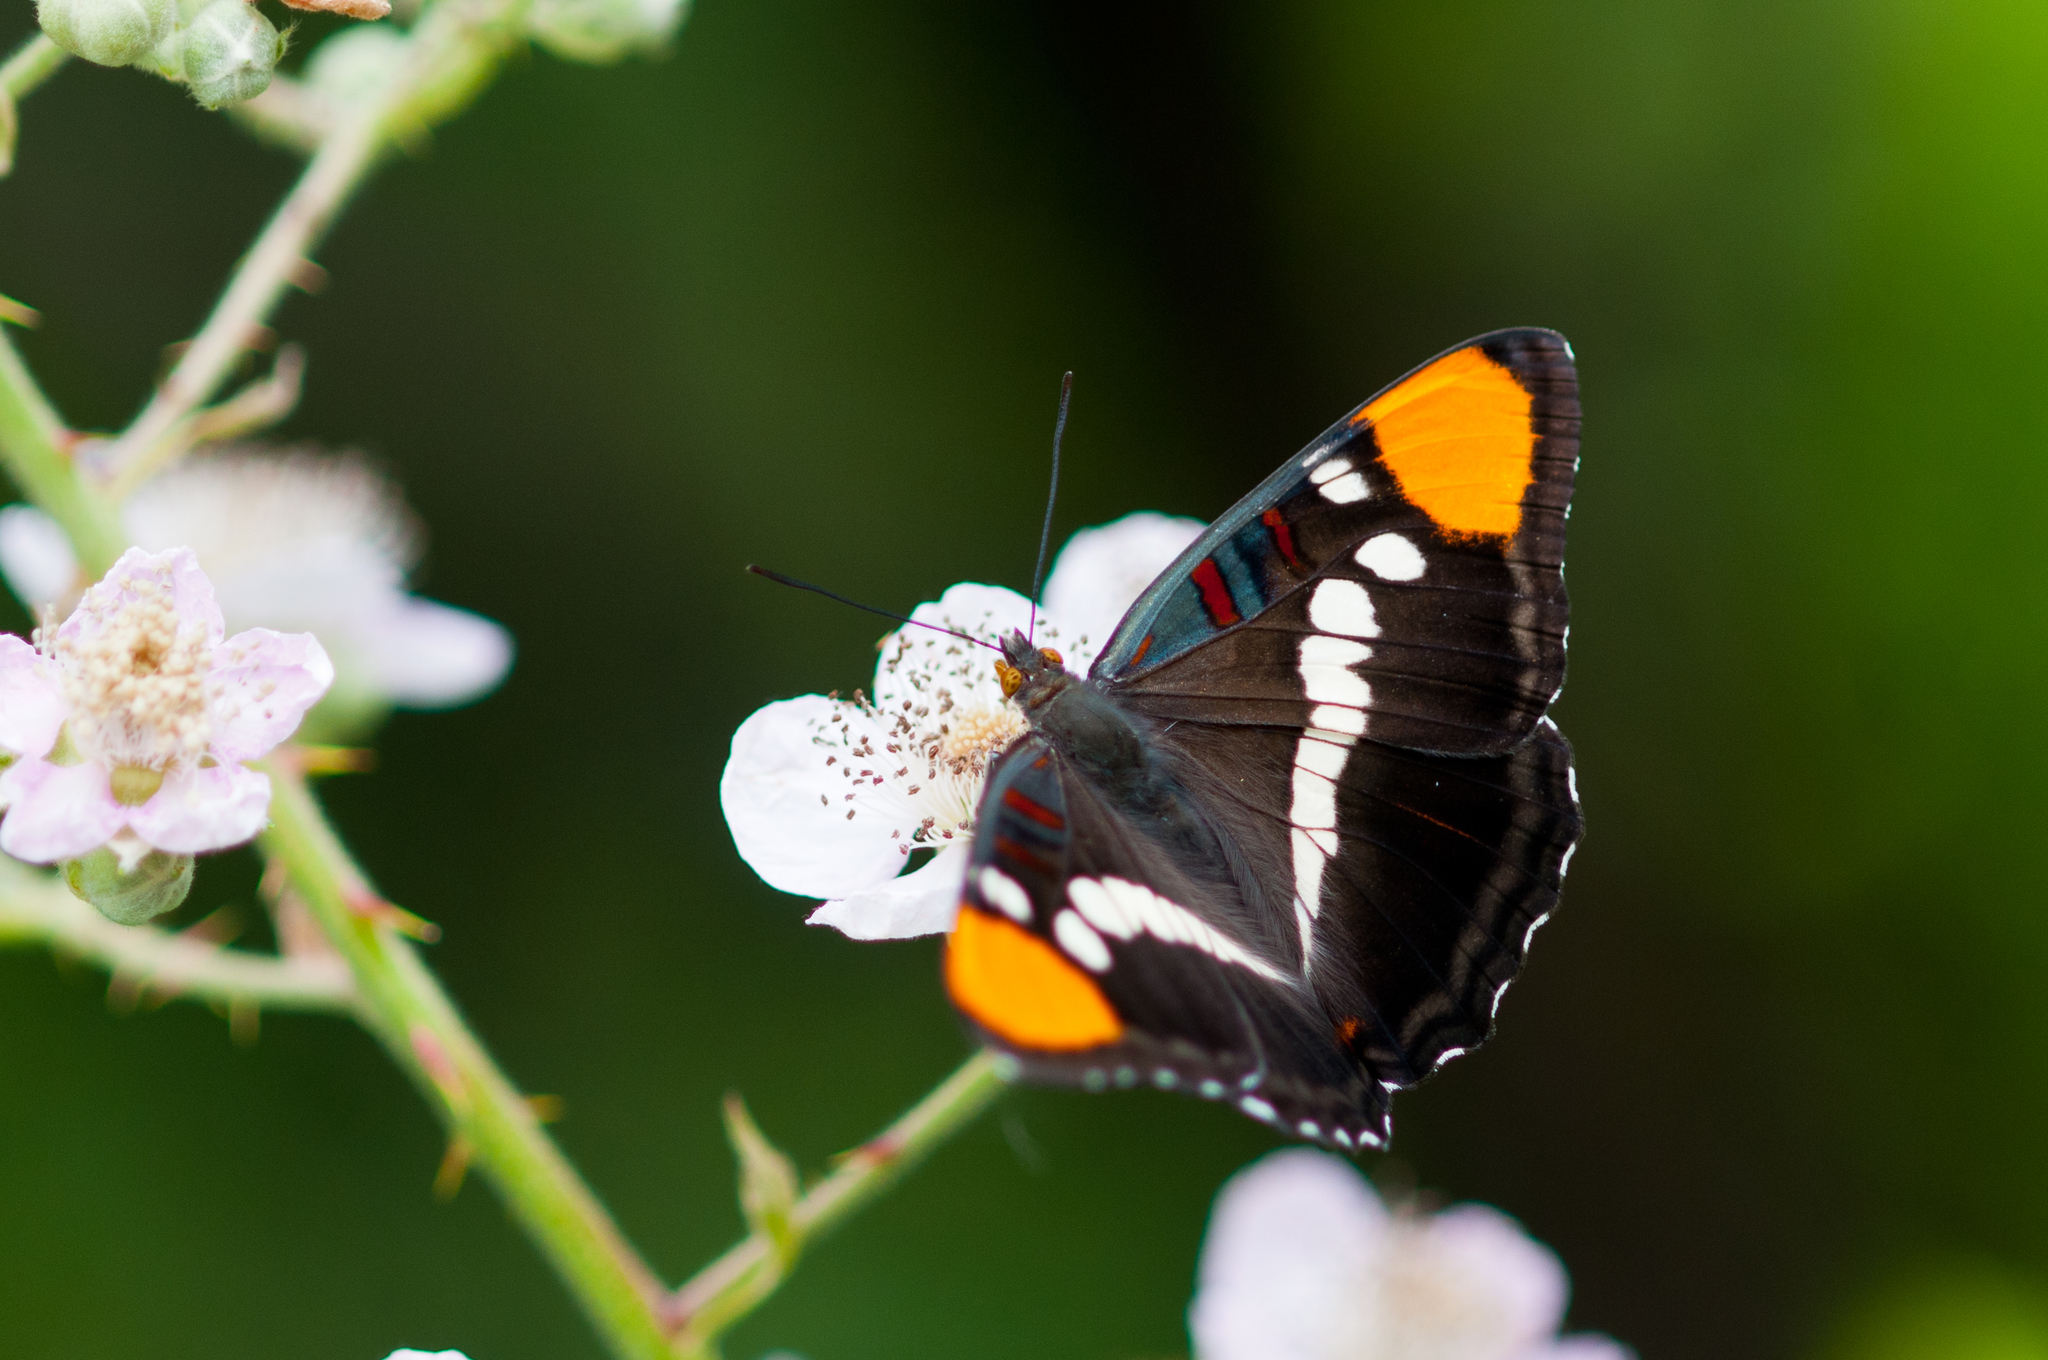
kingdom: Animalia
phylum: Arthropoda
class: Insecta
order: Lepidoptera
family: Nymphalidae
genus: Limenitis
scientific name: Limenitis bredowii
